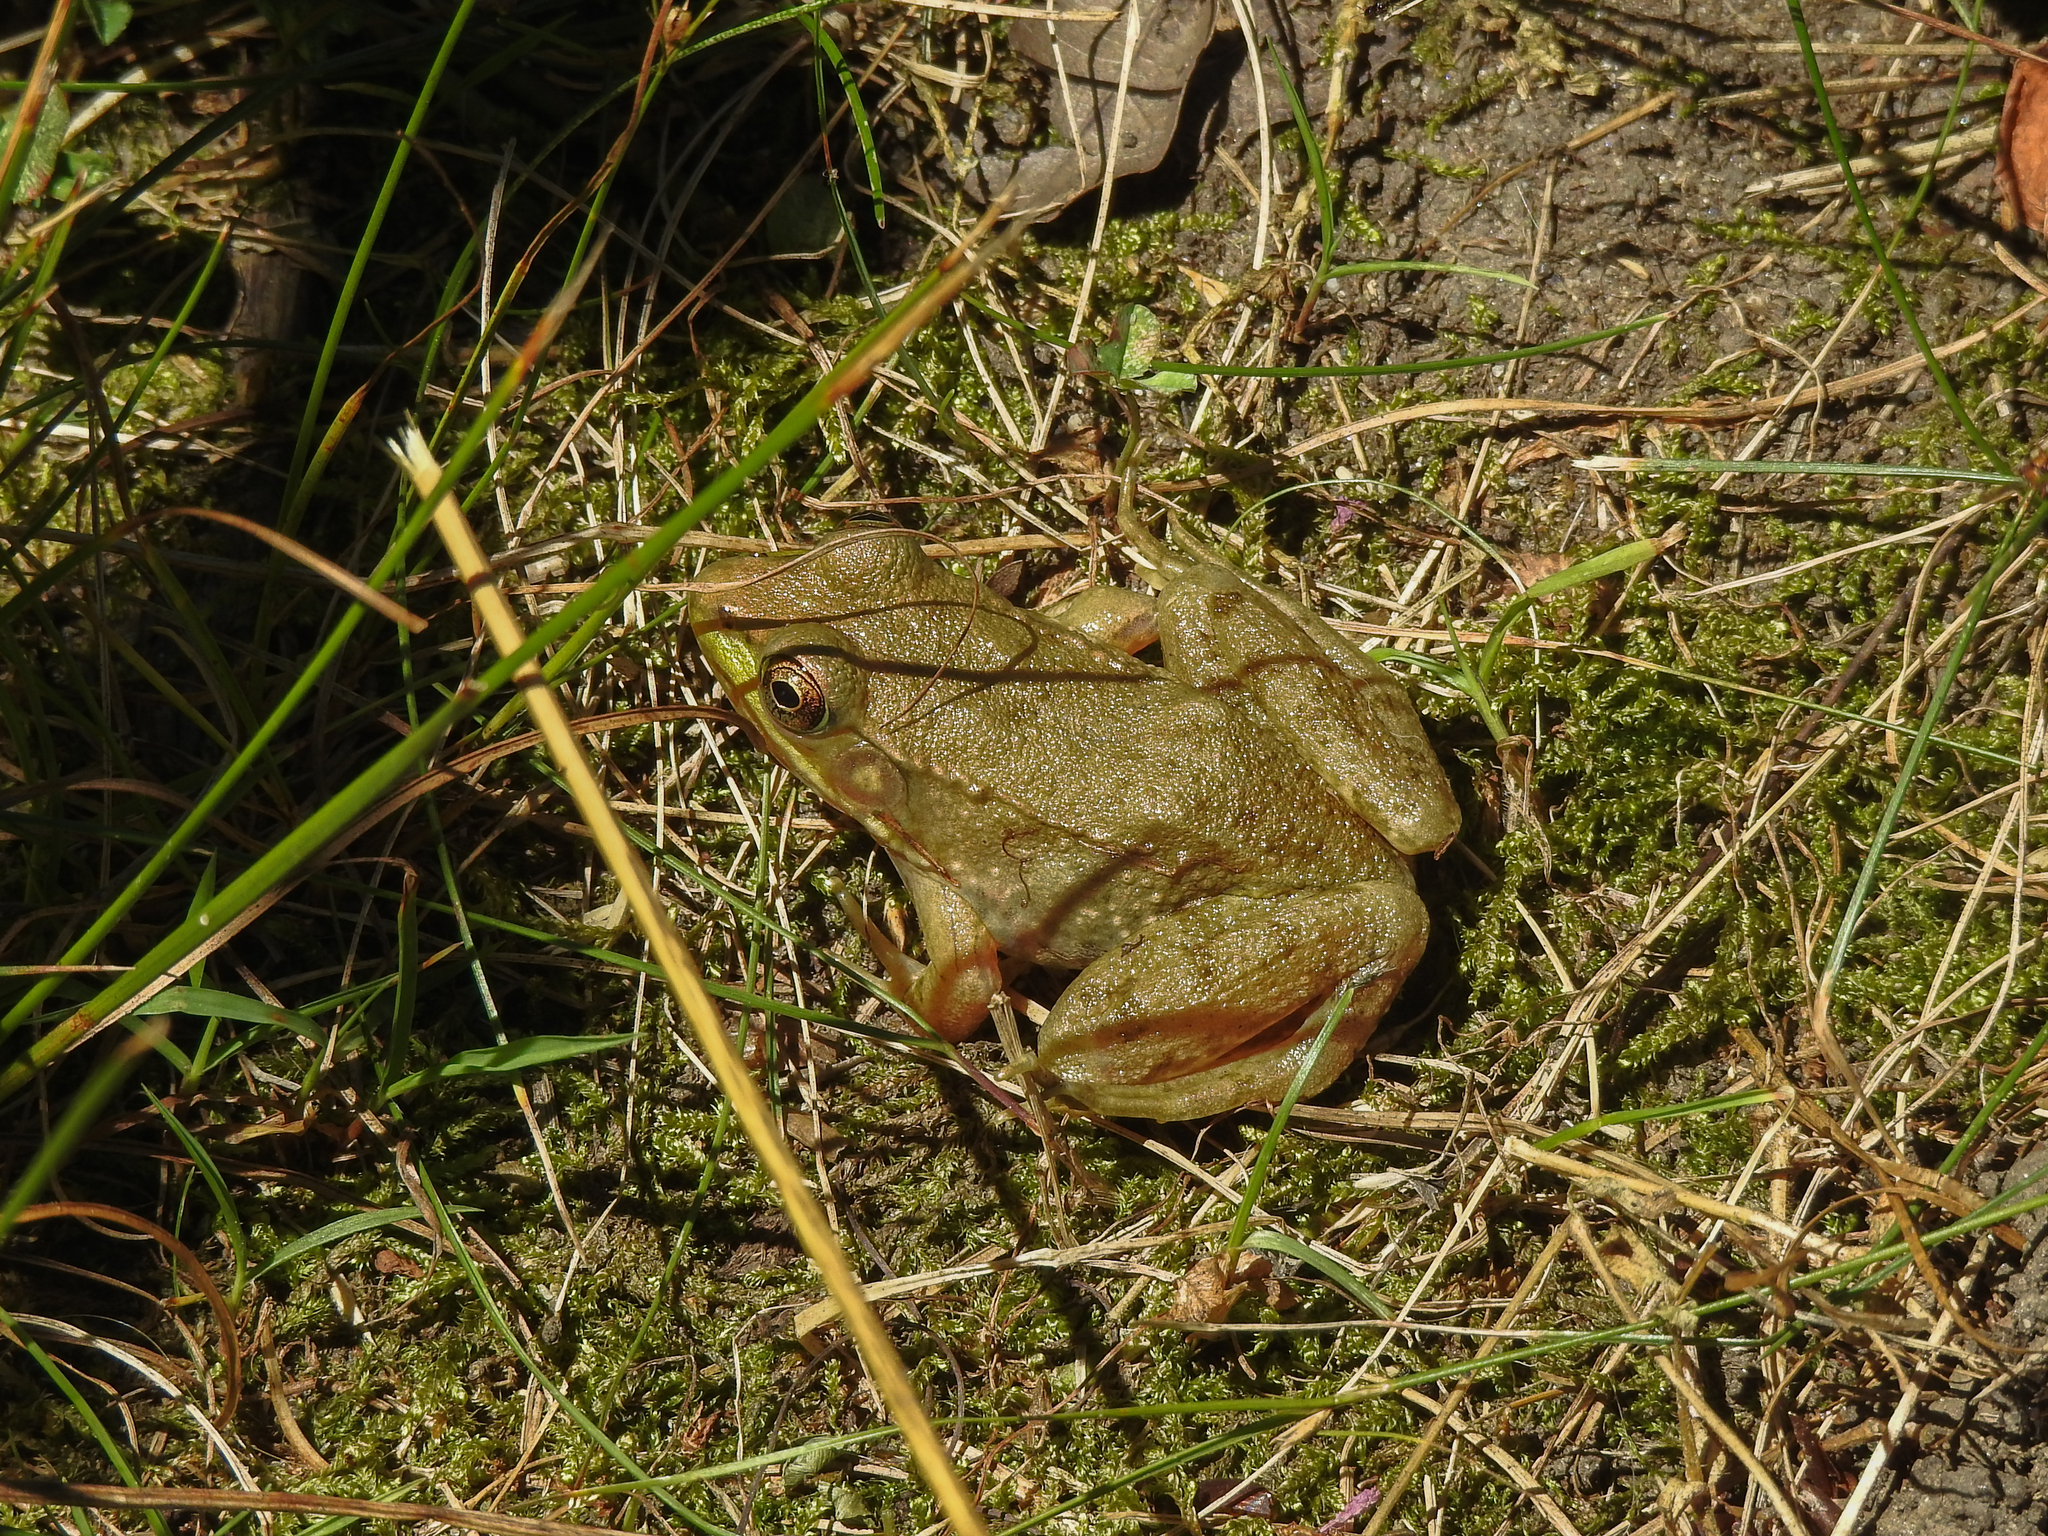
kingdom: Animalia
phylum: Chordata
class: Amphibia
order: Anura
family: Ranidae
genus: Lithobates
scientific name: Lithobates clamitans
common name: Green frog
